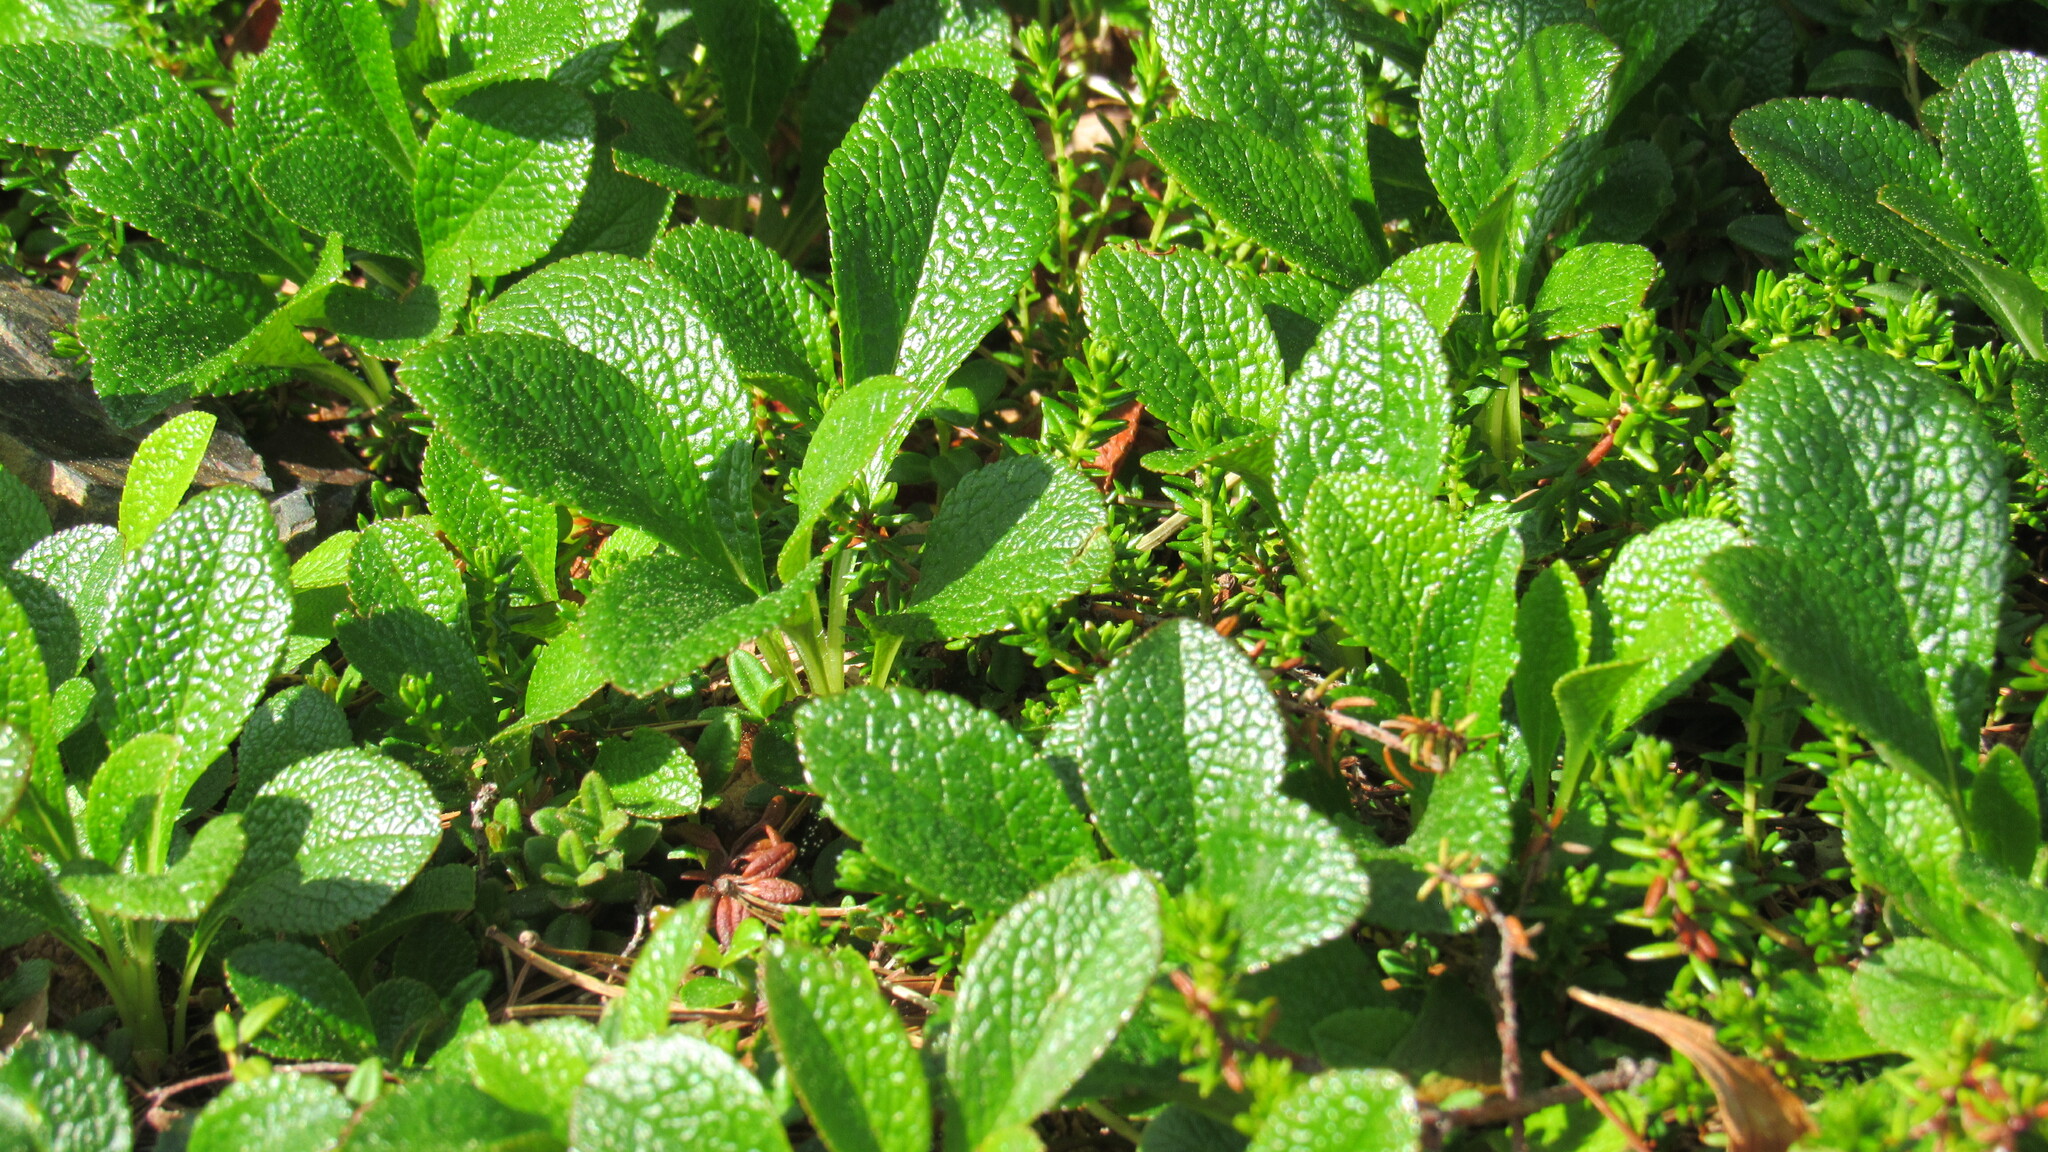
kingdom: Plantae
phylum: Tracheophyta
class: Magnoliopsida
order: Ericales
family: Ericaceae
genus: Arctostaphylos
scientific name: Arctostaphylos alpinus
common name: Alpine bearberry
